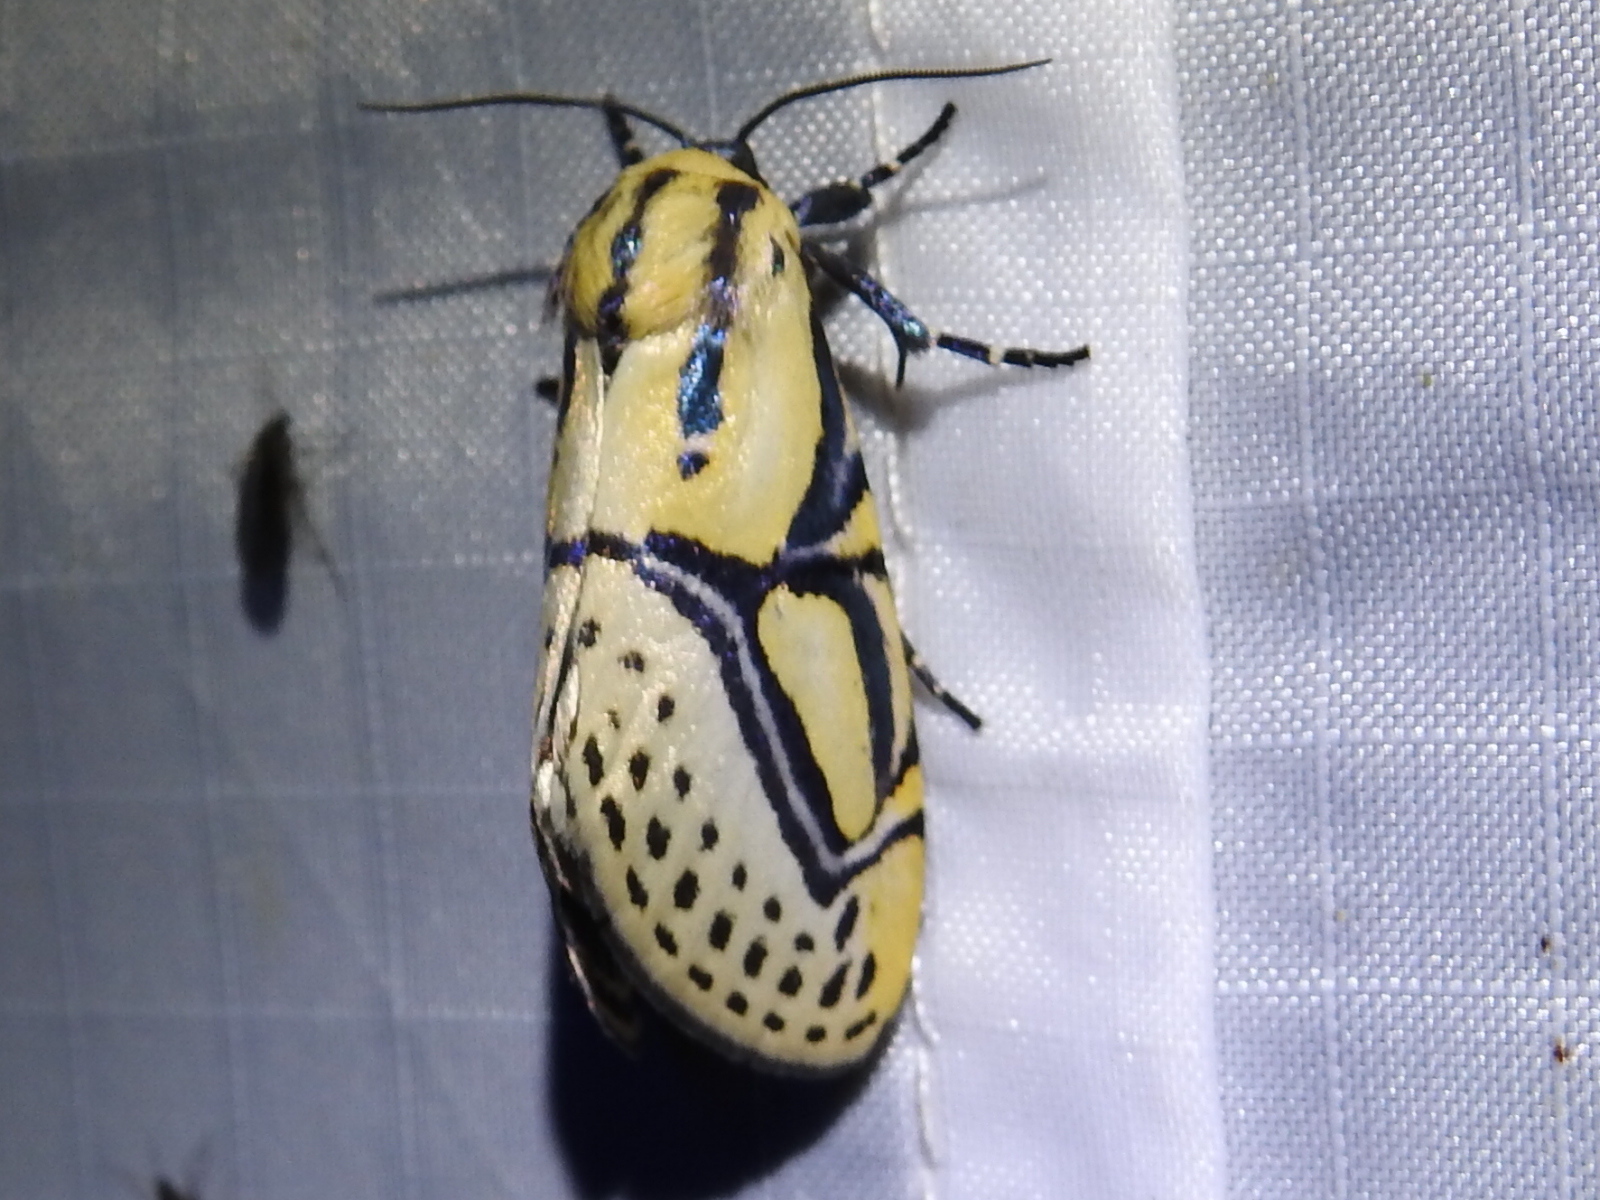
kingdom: Animalia
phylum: Arthropoda
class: Insecta
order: Lepidoptera
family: Erebidae
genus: Diphthera
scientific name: Diphthera festiva
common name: Hieroglyphic moth
